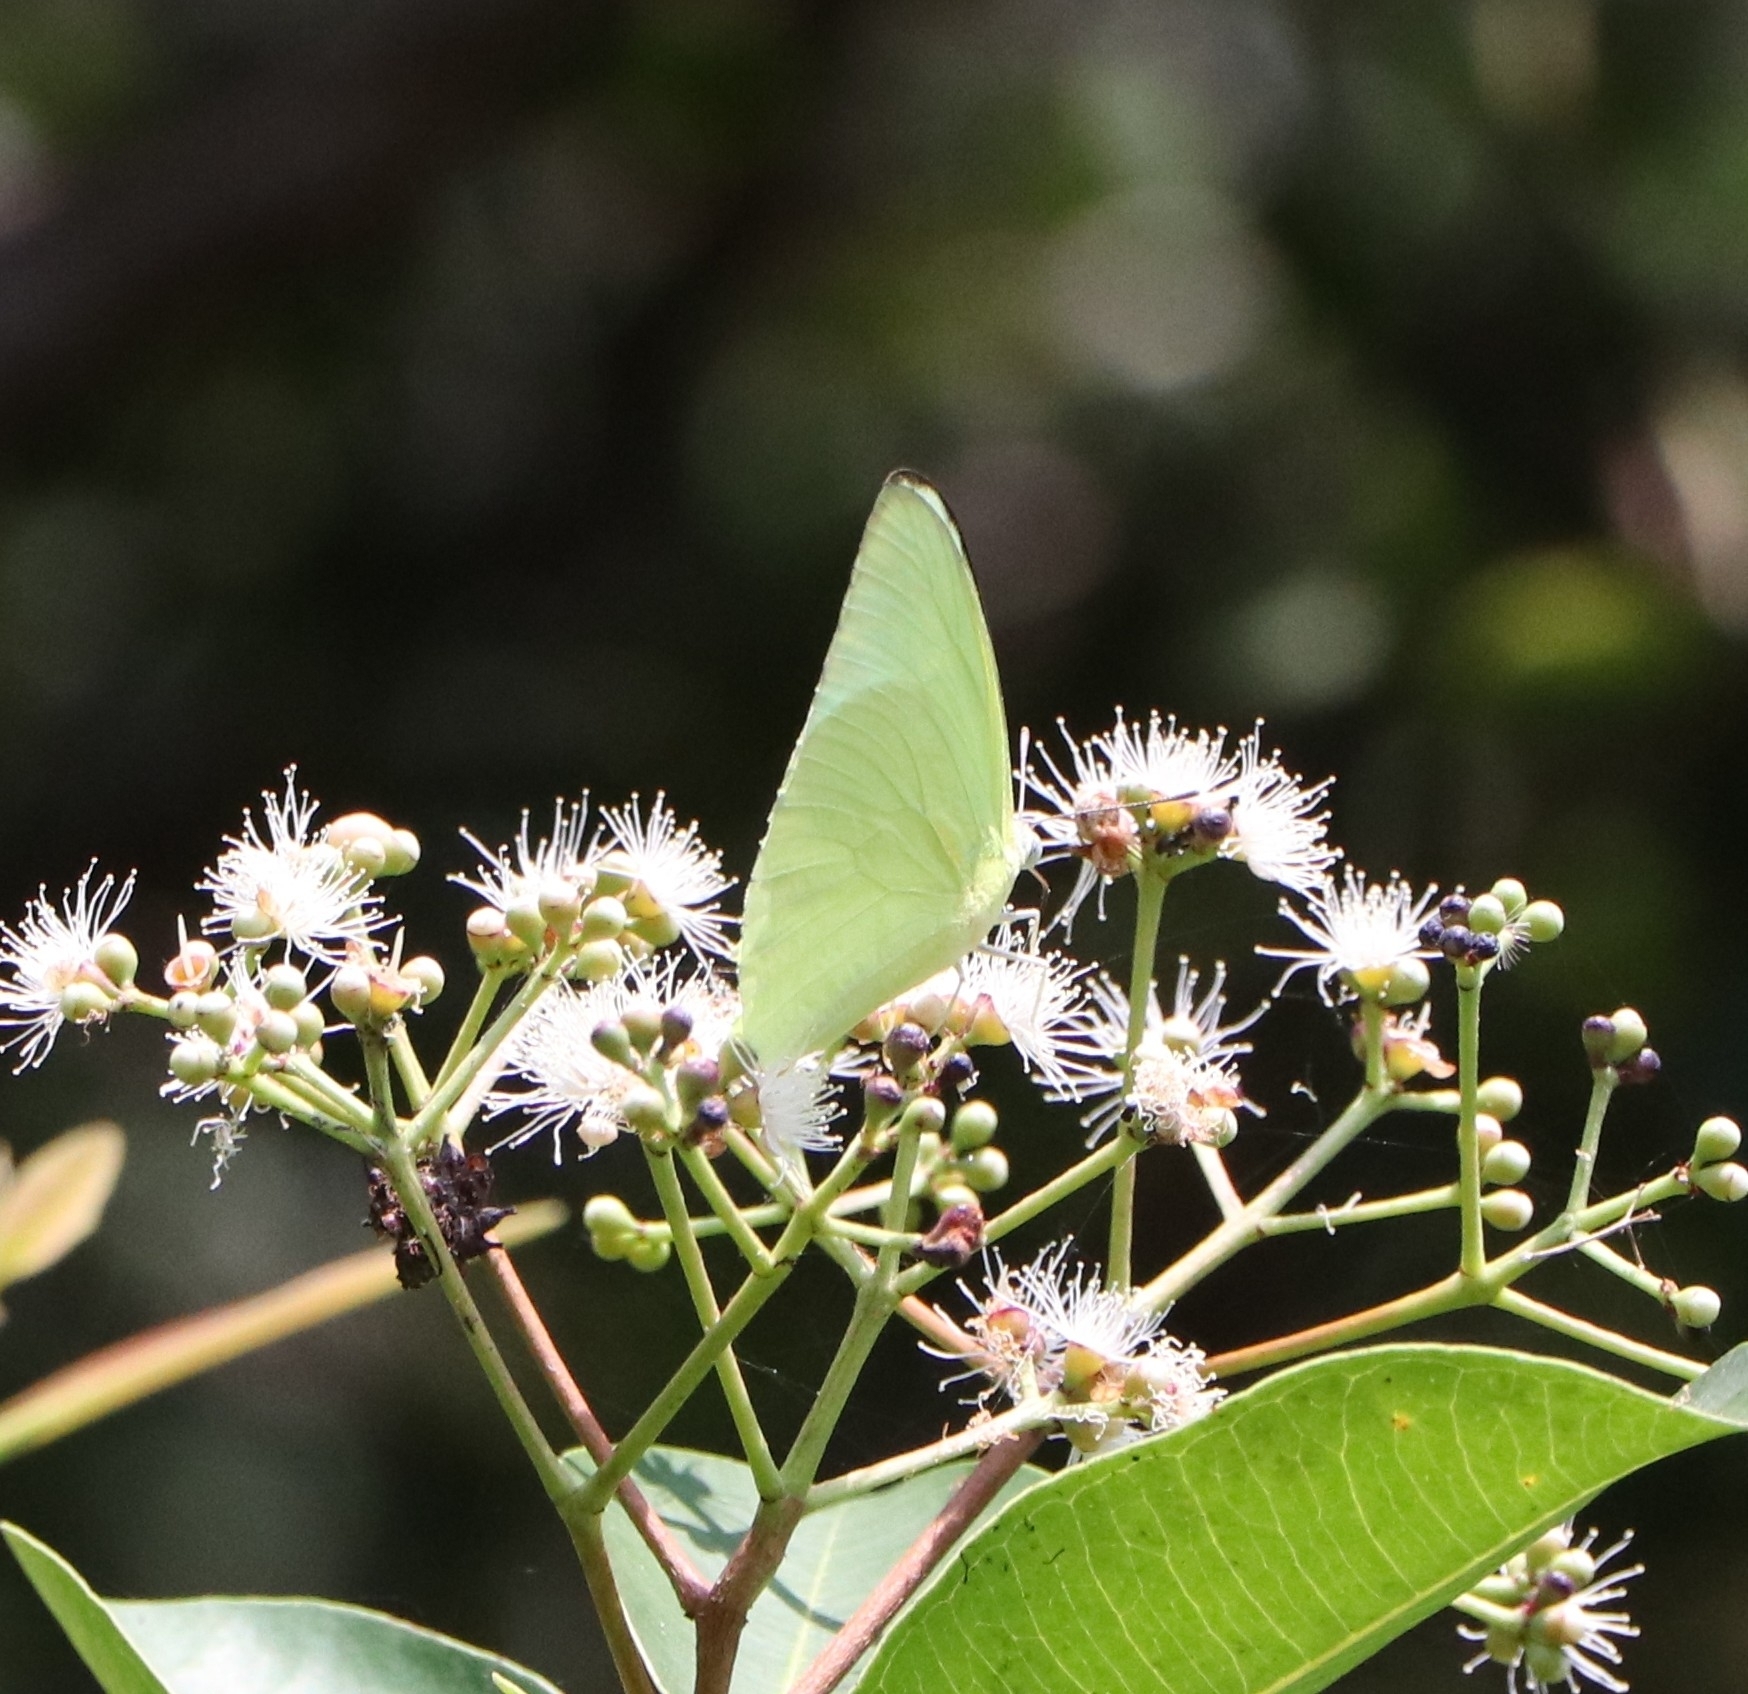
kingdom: Animalia
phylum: Arthropoda
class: Insecta
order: Lepidoptera
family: Pieridae
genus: Catopsilia
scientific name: Catopsilia pomona
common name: Common emigrant
